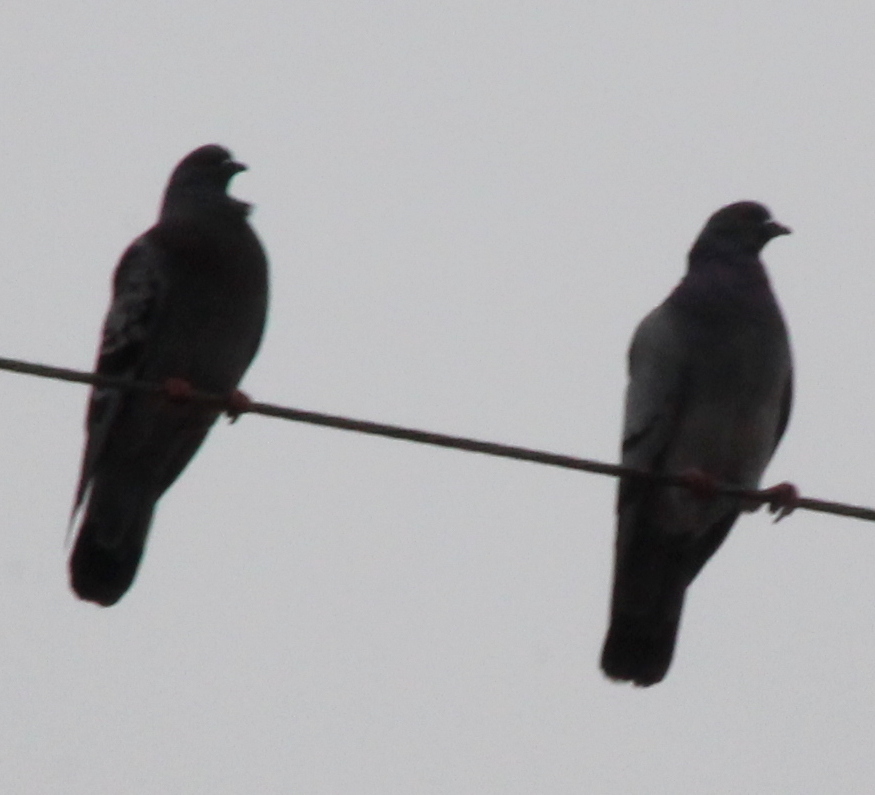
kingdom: Animalia
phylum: Chordata
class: Aves
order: Columbiformes
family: Columbidae
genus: Columba
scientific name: Columba livia
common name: Rock pigeon
